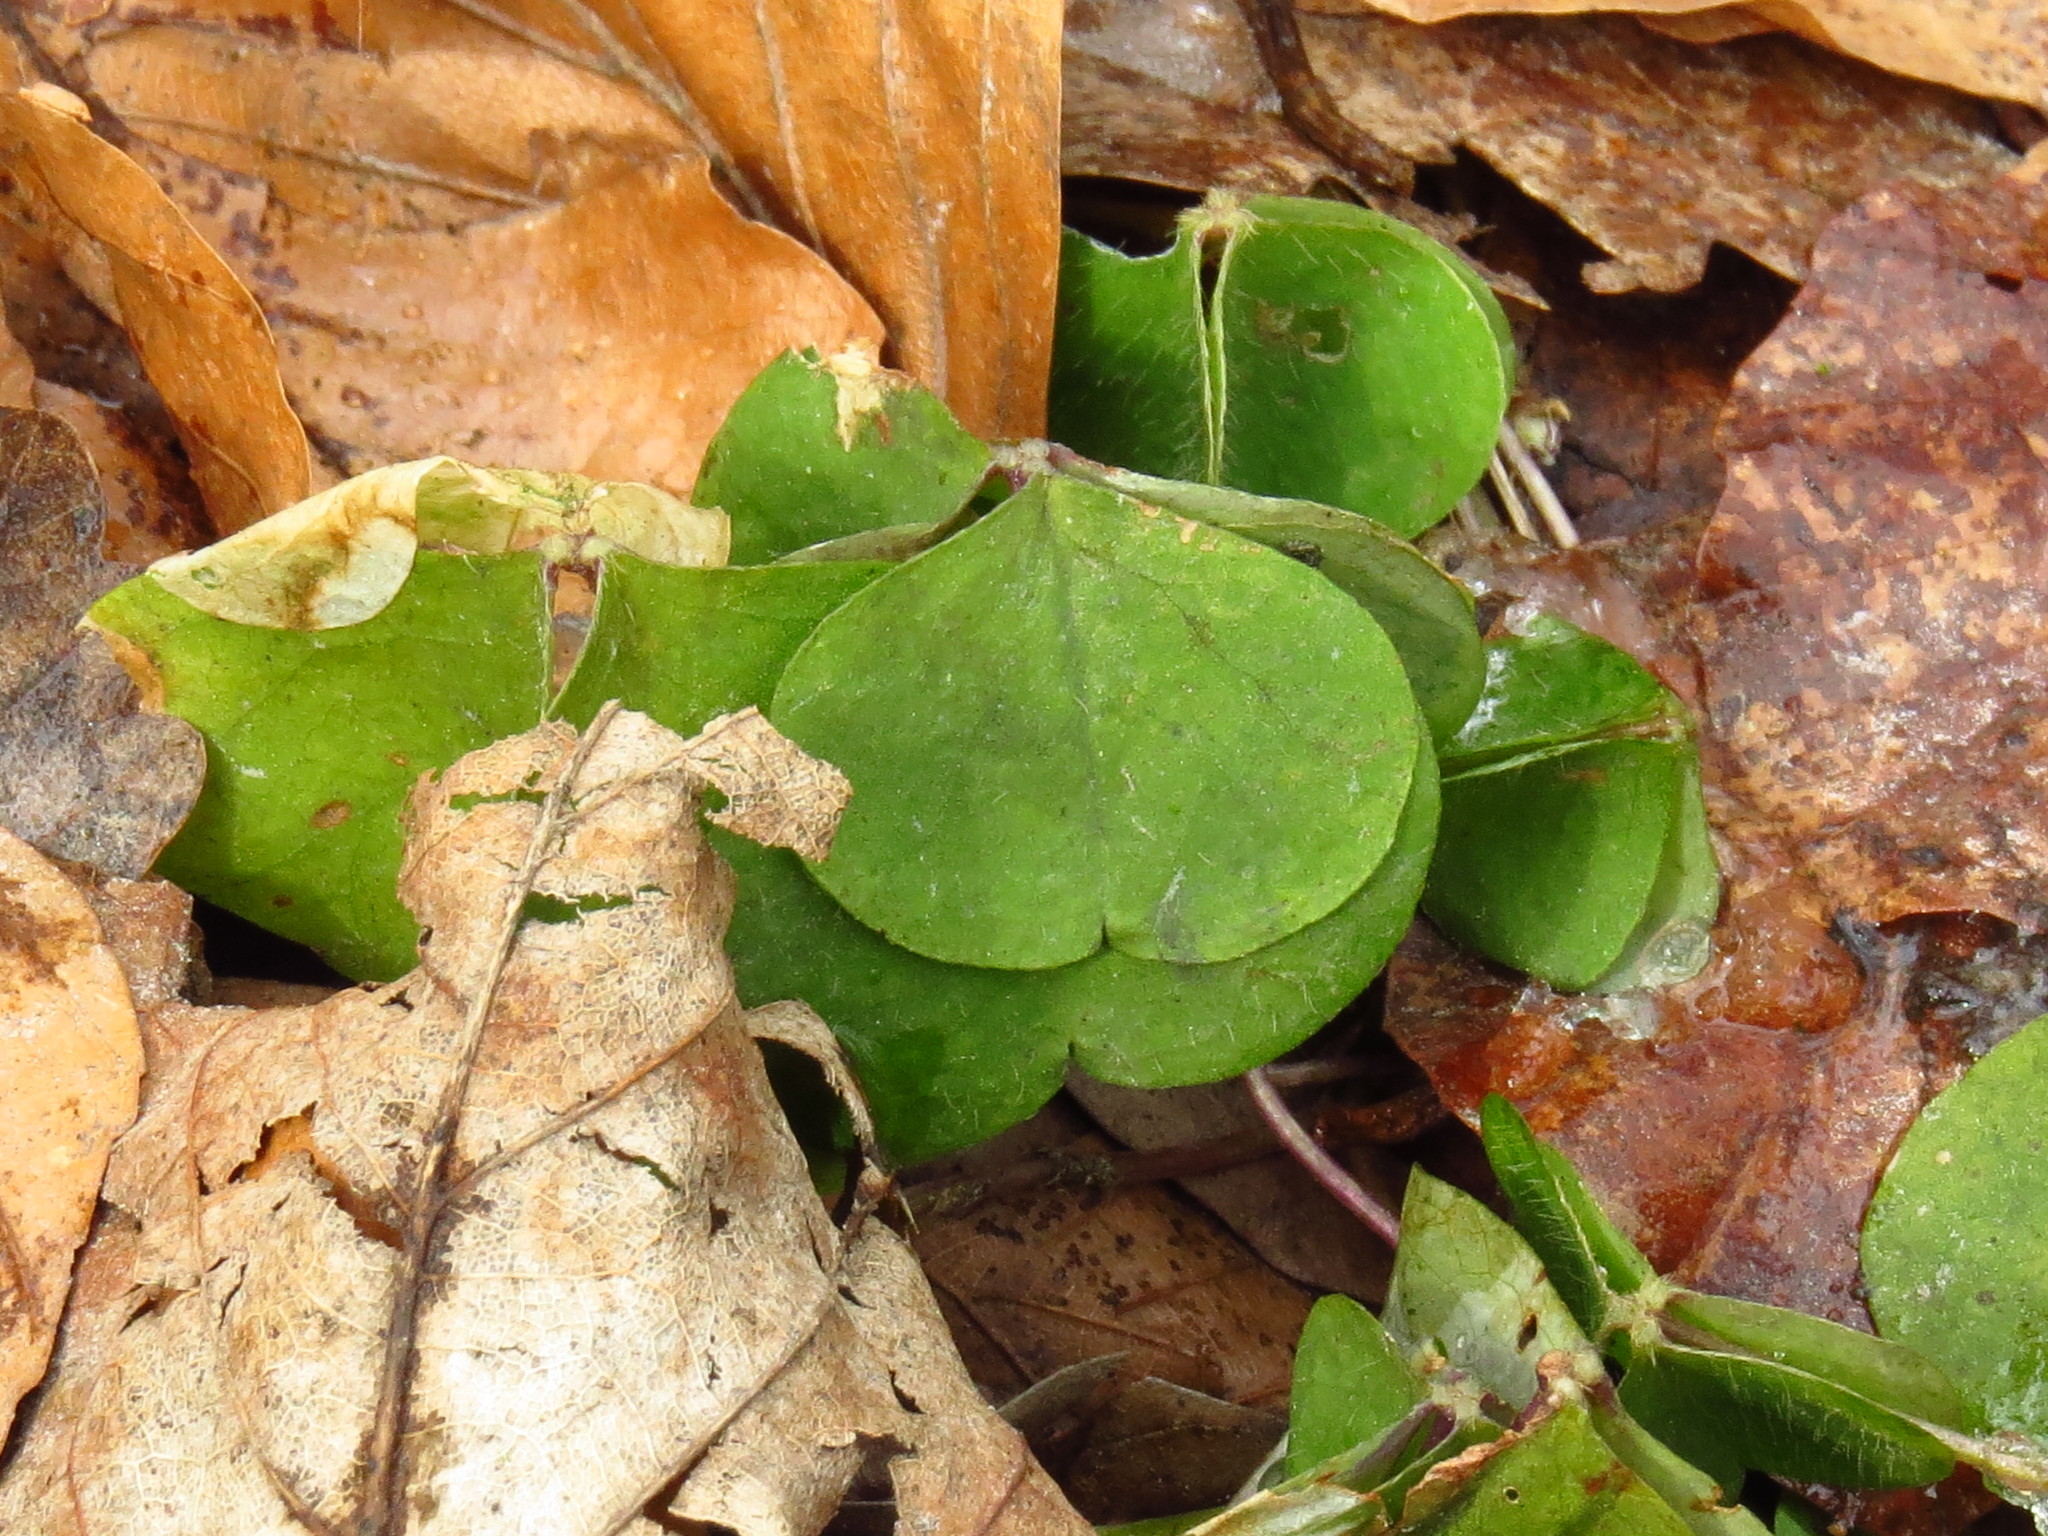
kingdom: Plantae
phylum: Tracheophyta
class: Magnoliopsida
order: Oxalidales
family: Oxalidaceae
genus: Oxalis
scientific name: Oxalis acetosella
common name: Wood-sorrel
